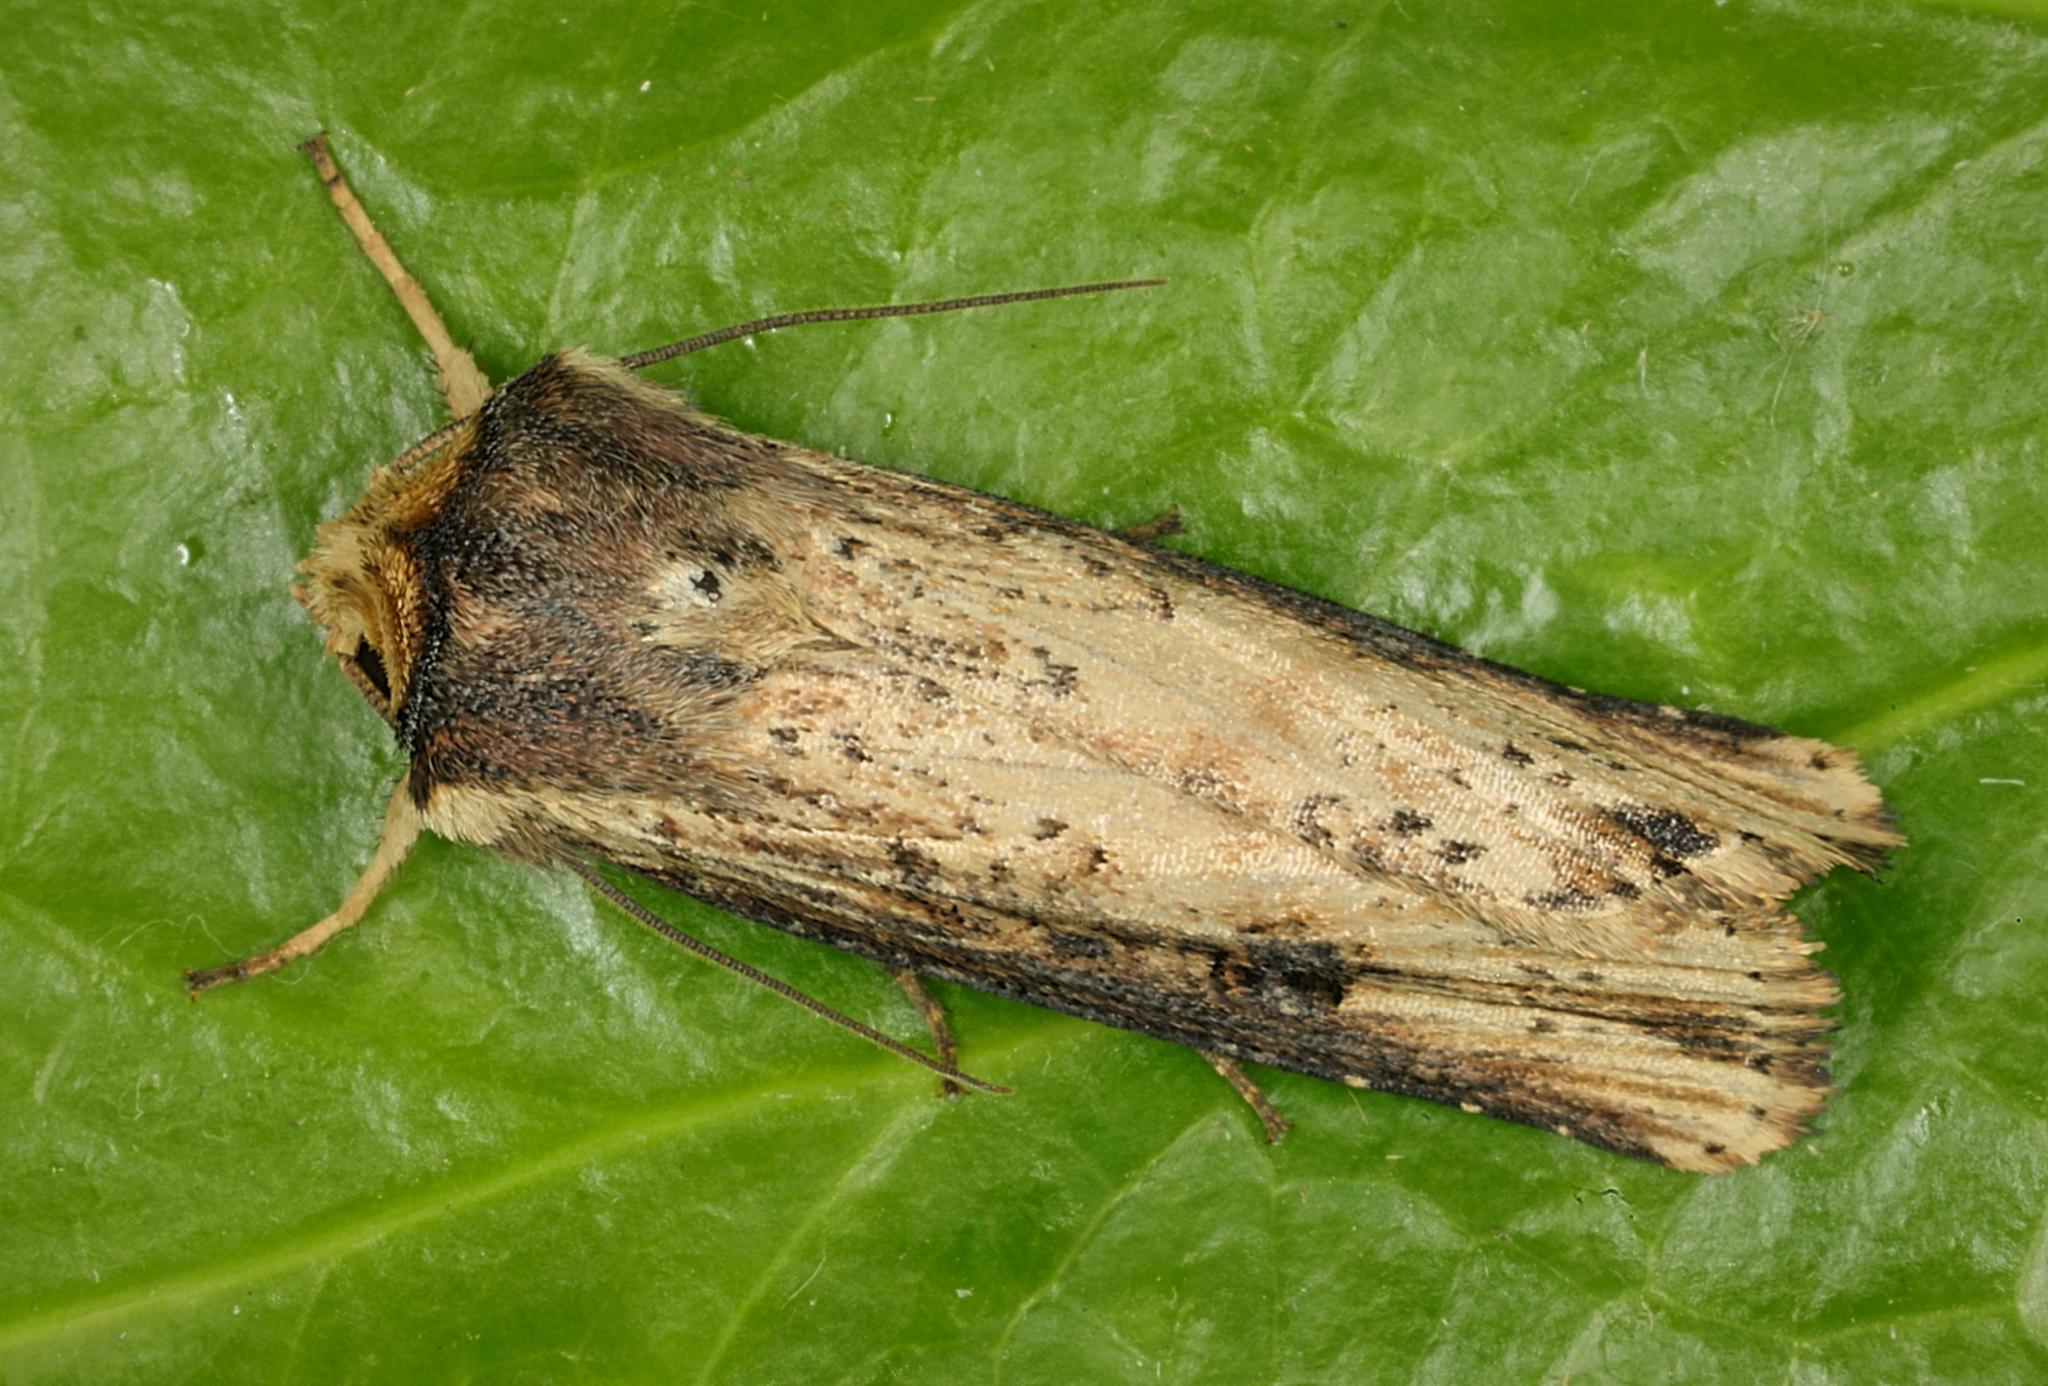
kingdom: Animalia
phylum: Arthropoda
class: Insecta
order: Lepidoptera
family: Noctuidae
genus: Axylia
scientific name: Axylia putris
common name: Flame
